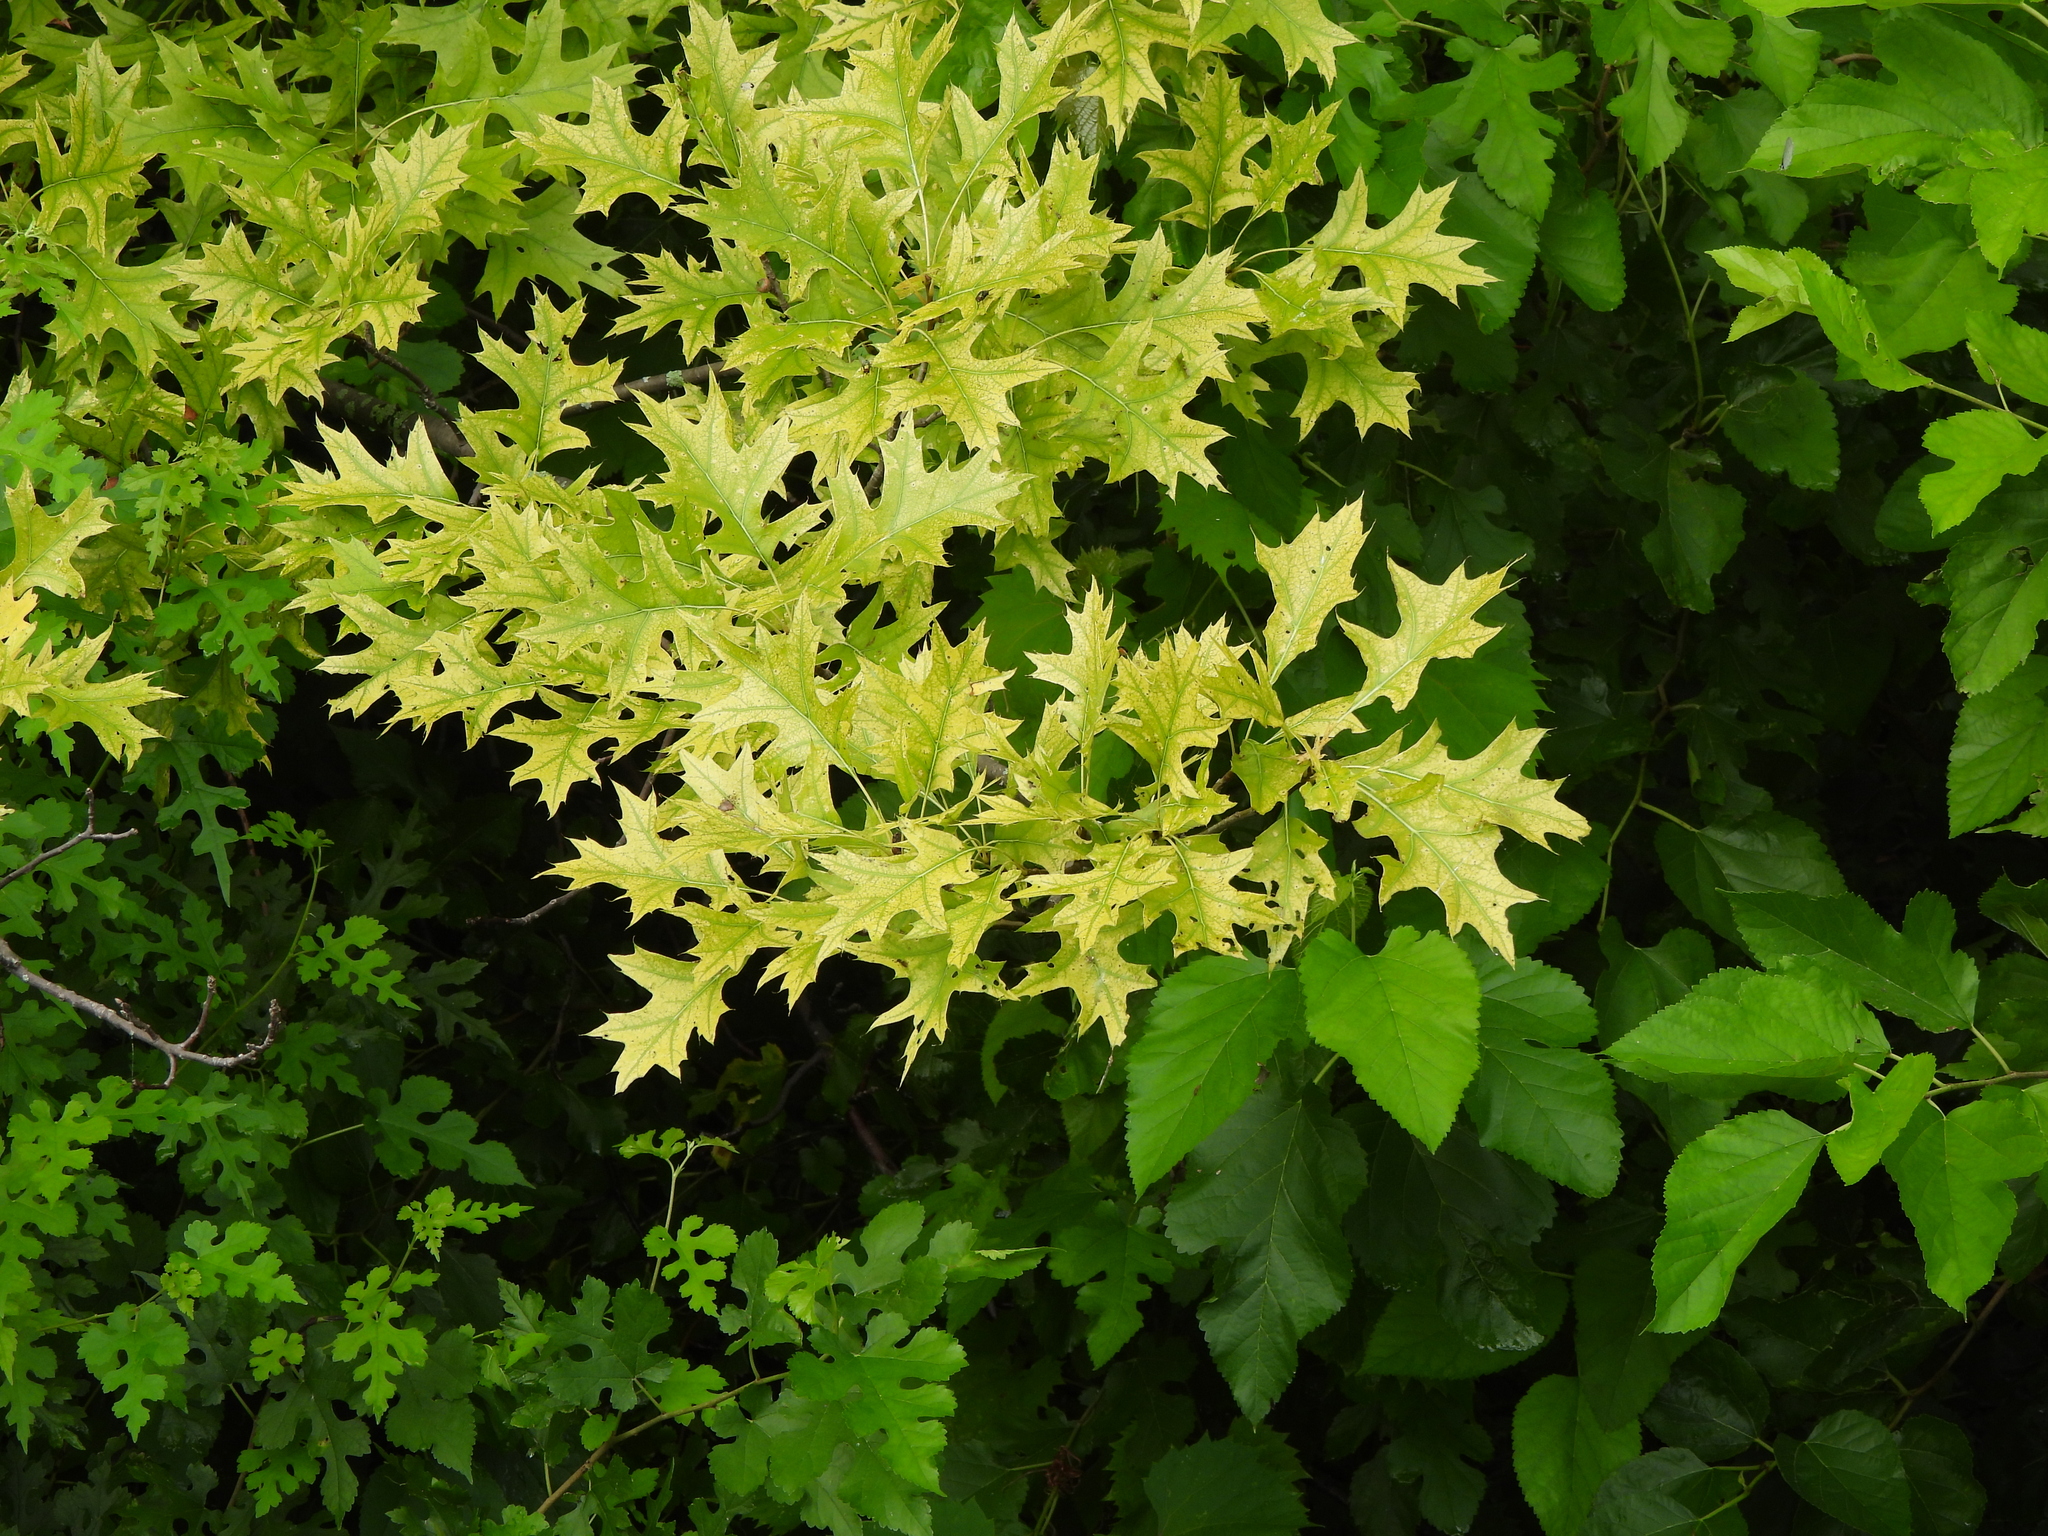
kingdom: Plantae
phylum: Tracheophyta
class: Magnoliopsida
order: Fagales
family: Fagaceae
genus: Quercus
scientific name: Quercus palustris
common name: Pin oak
